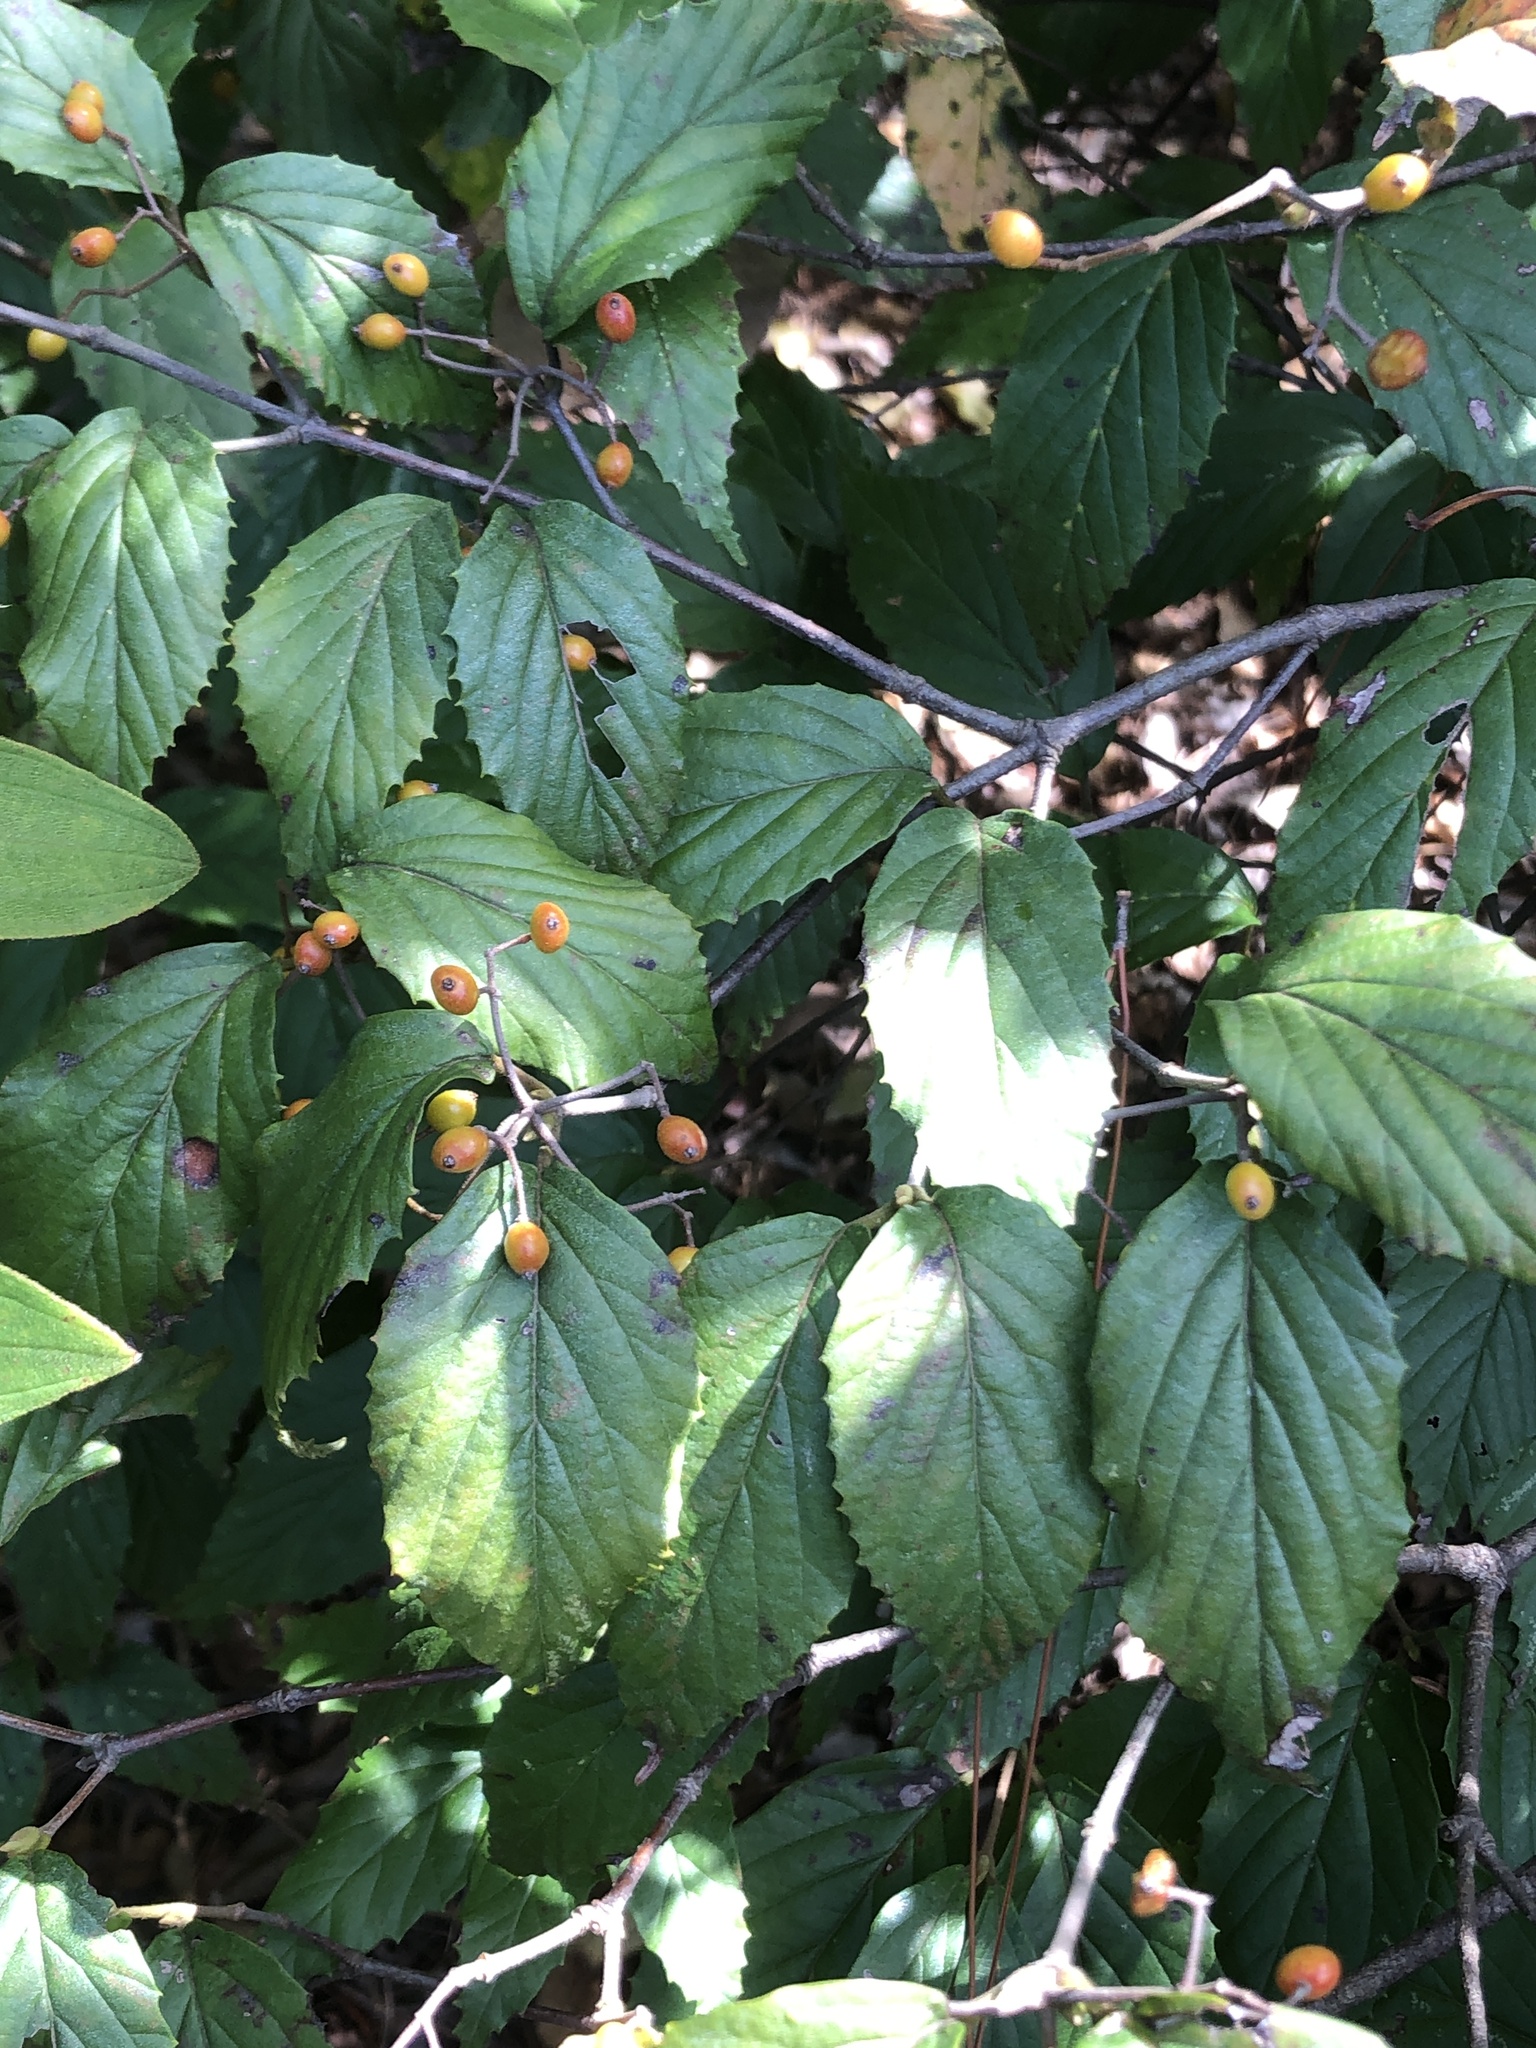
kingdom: Plantae
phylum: Tracheophyta
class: Magnoliopsida
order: Dipsacales
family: Viburnaceae
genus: Viburnum
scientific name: Viburnum luzonicum
